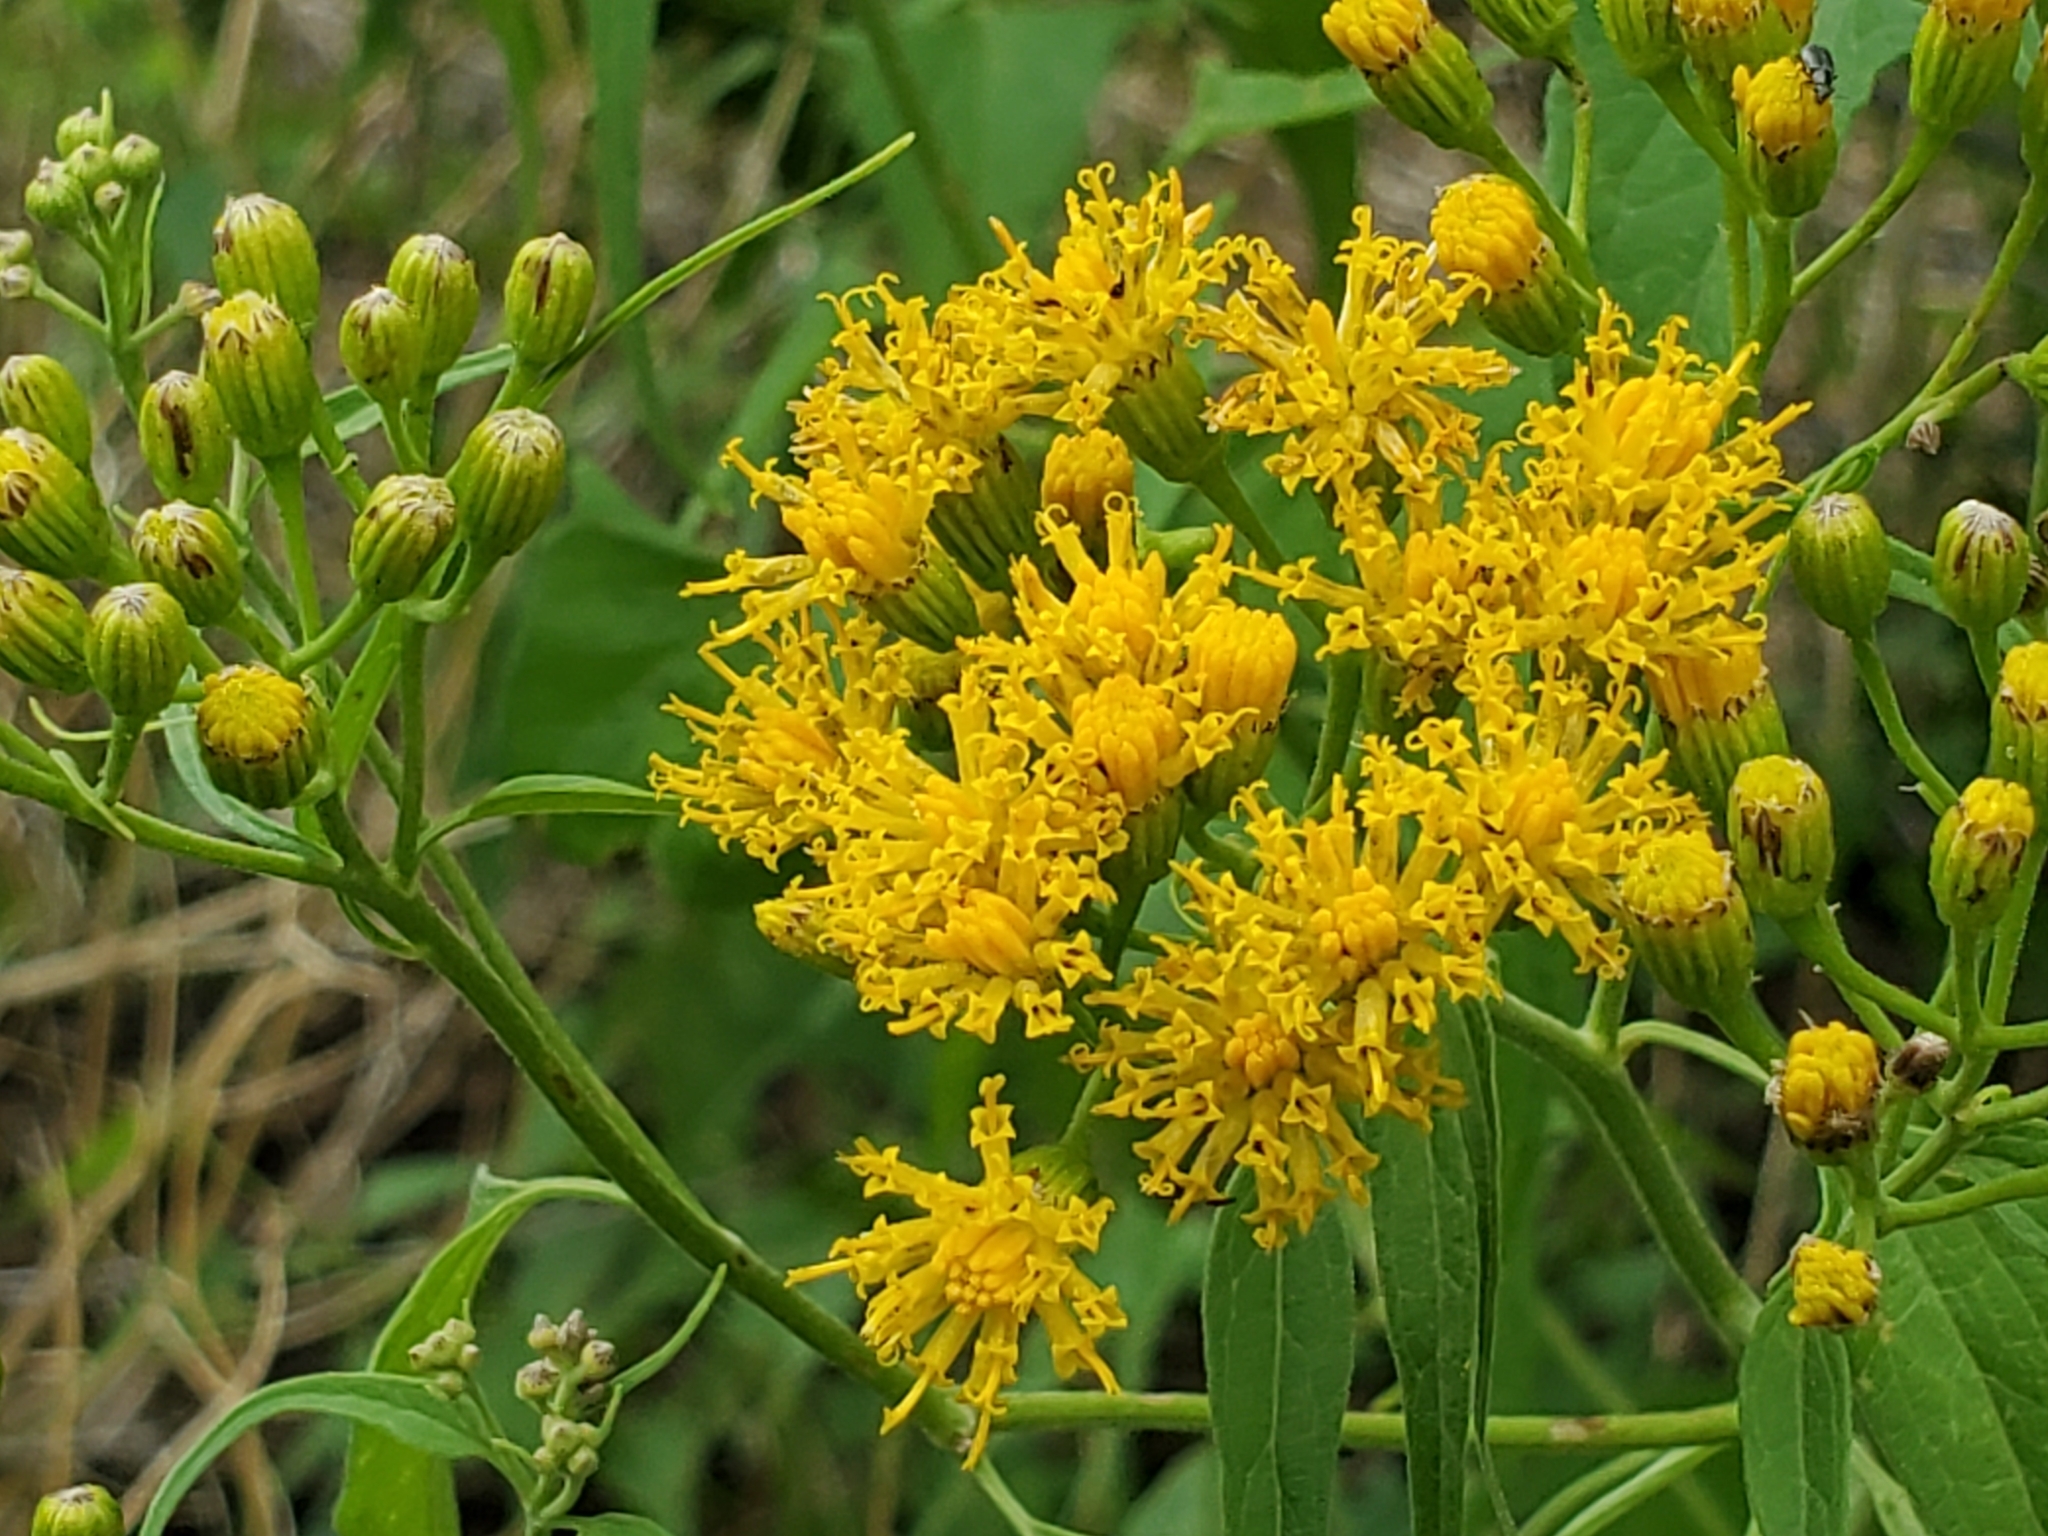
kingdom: Plantae
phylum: Tracheophyta
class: Magnoliopsida
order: Asterales
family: Asteraceae
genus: Pericome
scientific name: Pericome caudata
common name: Taperleaf
